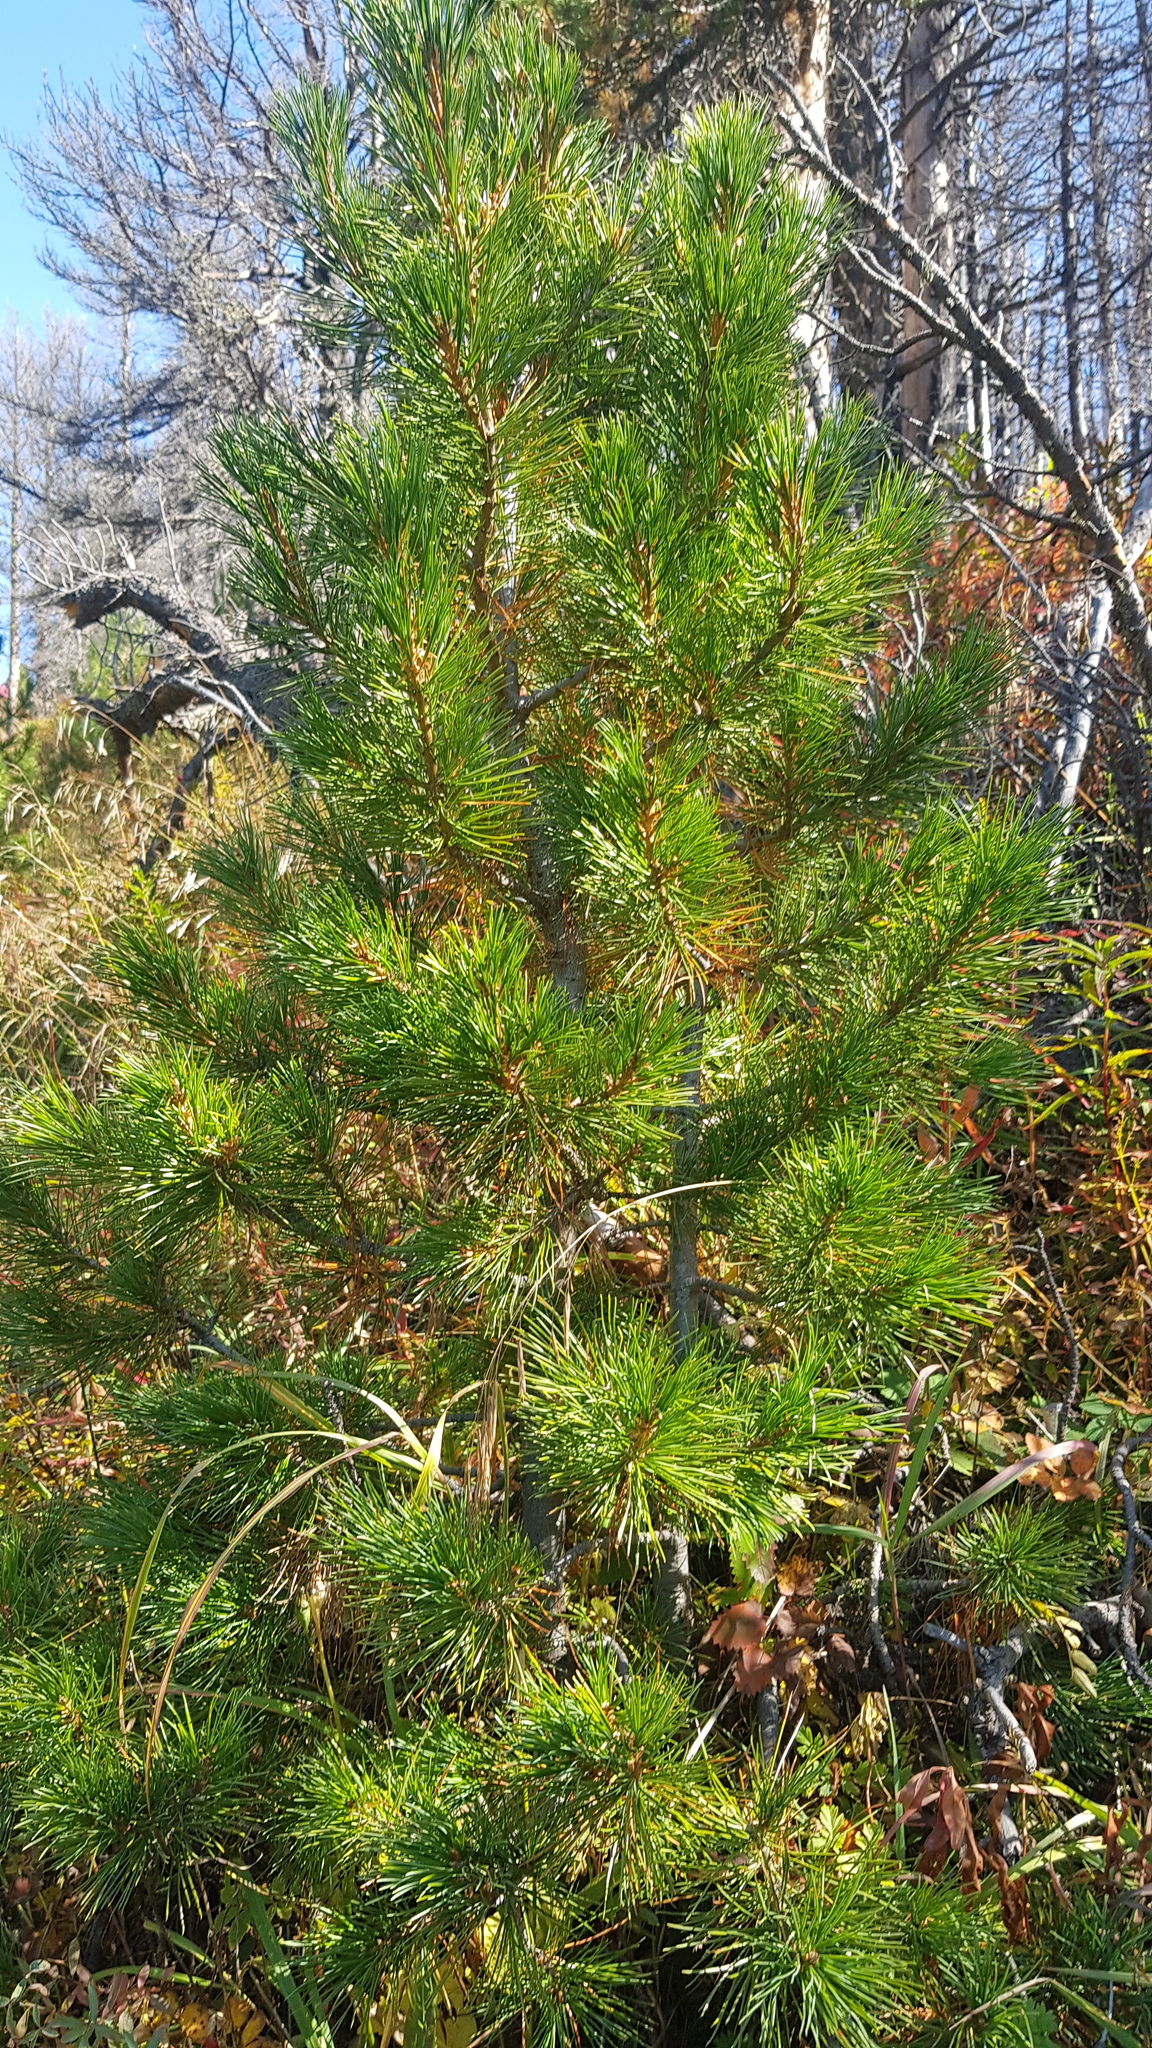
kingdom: Plantae
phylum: Tracheophyta
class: Pinopsida
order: Pinales
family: Pinaceae
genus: Pinus
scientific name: Pinus sibirica
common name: Siberian pine
